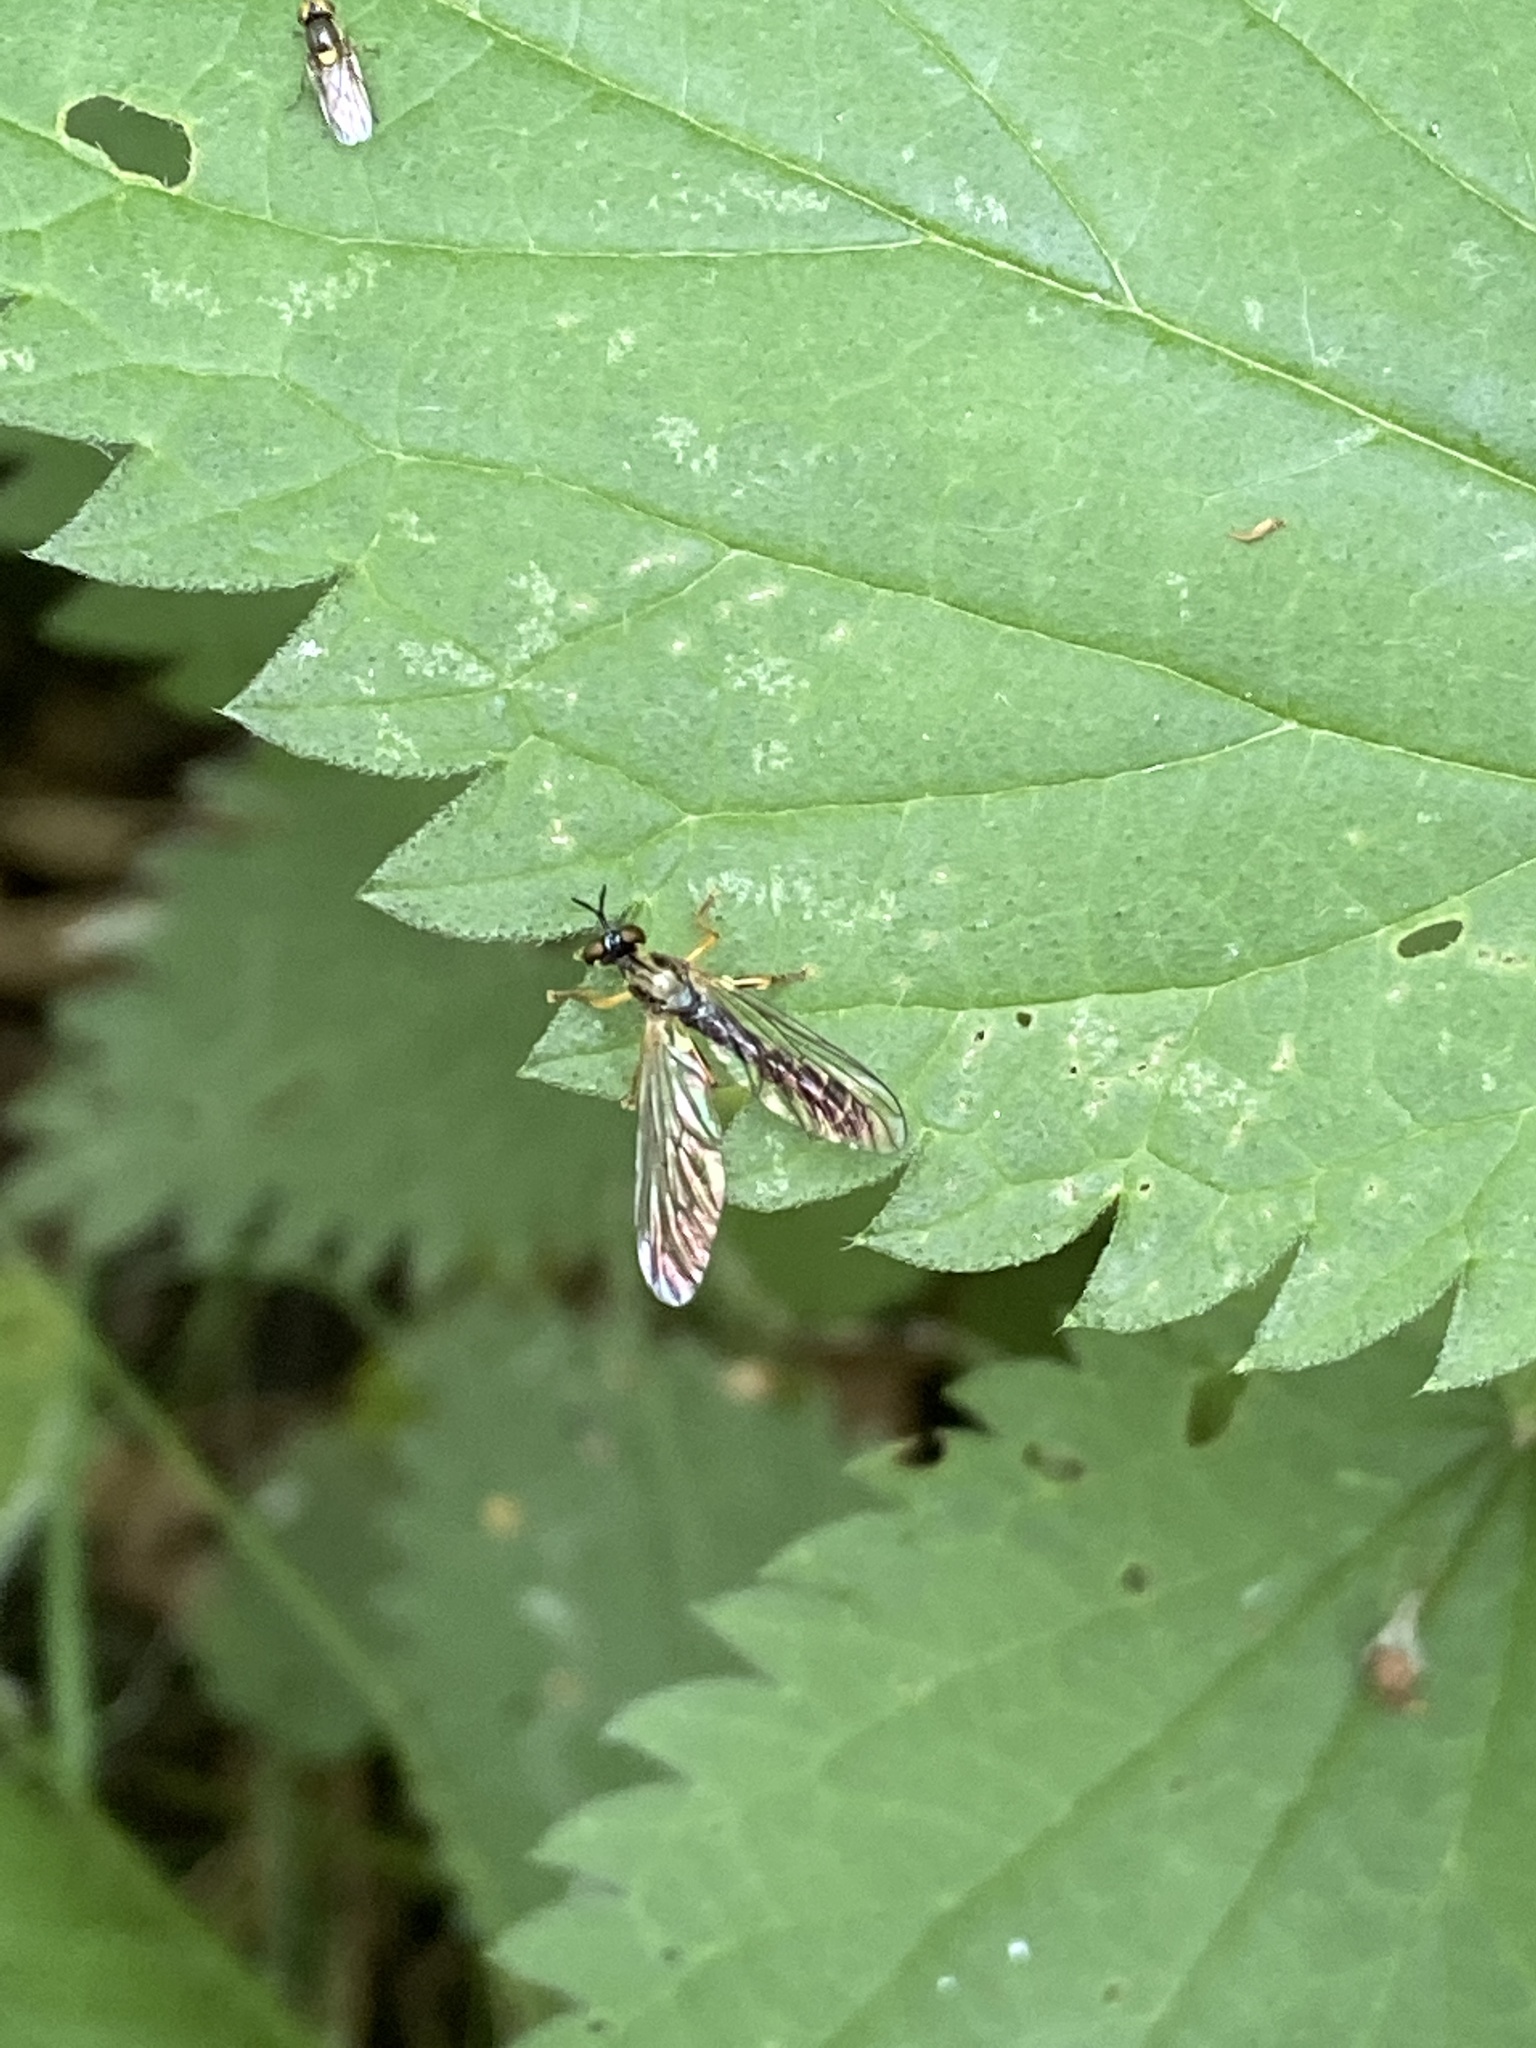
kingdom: Animalia
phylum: Arthropoda
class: Insecta
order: Diptera
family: Asilidae
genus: Dioctria
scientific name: Dioctria linearis
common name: Small yellow-legged robberfly
